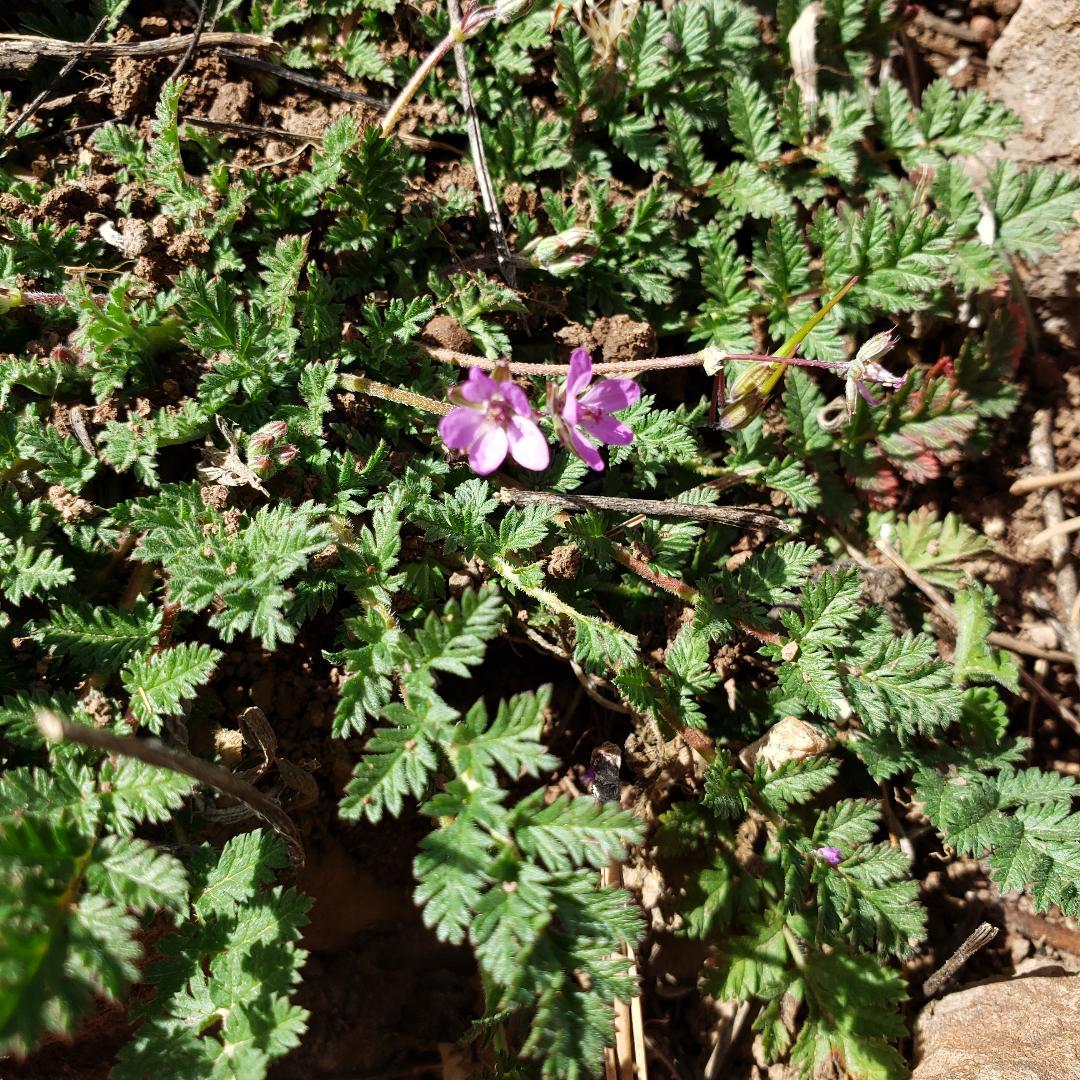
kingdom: Plantae
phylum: Tracheophyta
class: Magnoliopsida
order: Geraniales
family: Geraniaceae
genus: Erodium
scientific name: Erodium cicutarium
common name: Common stork's-bill
